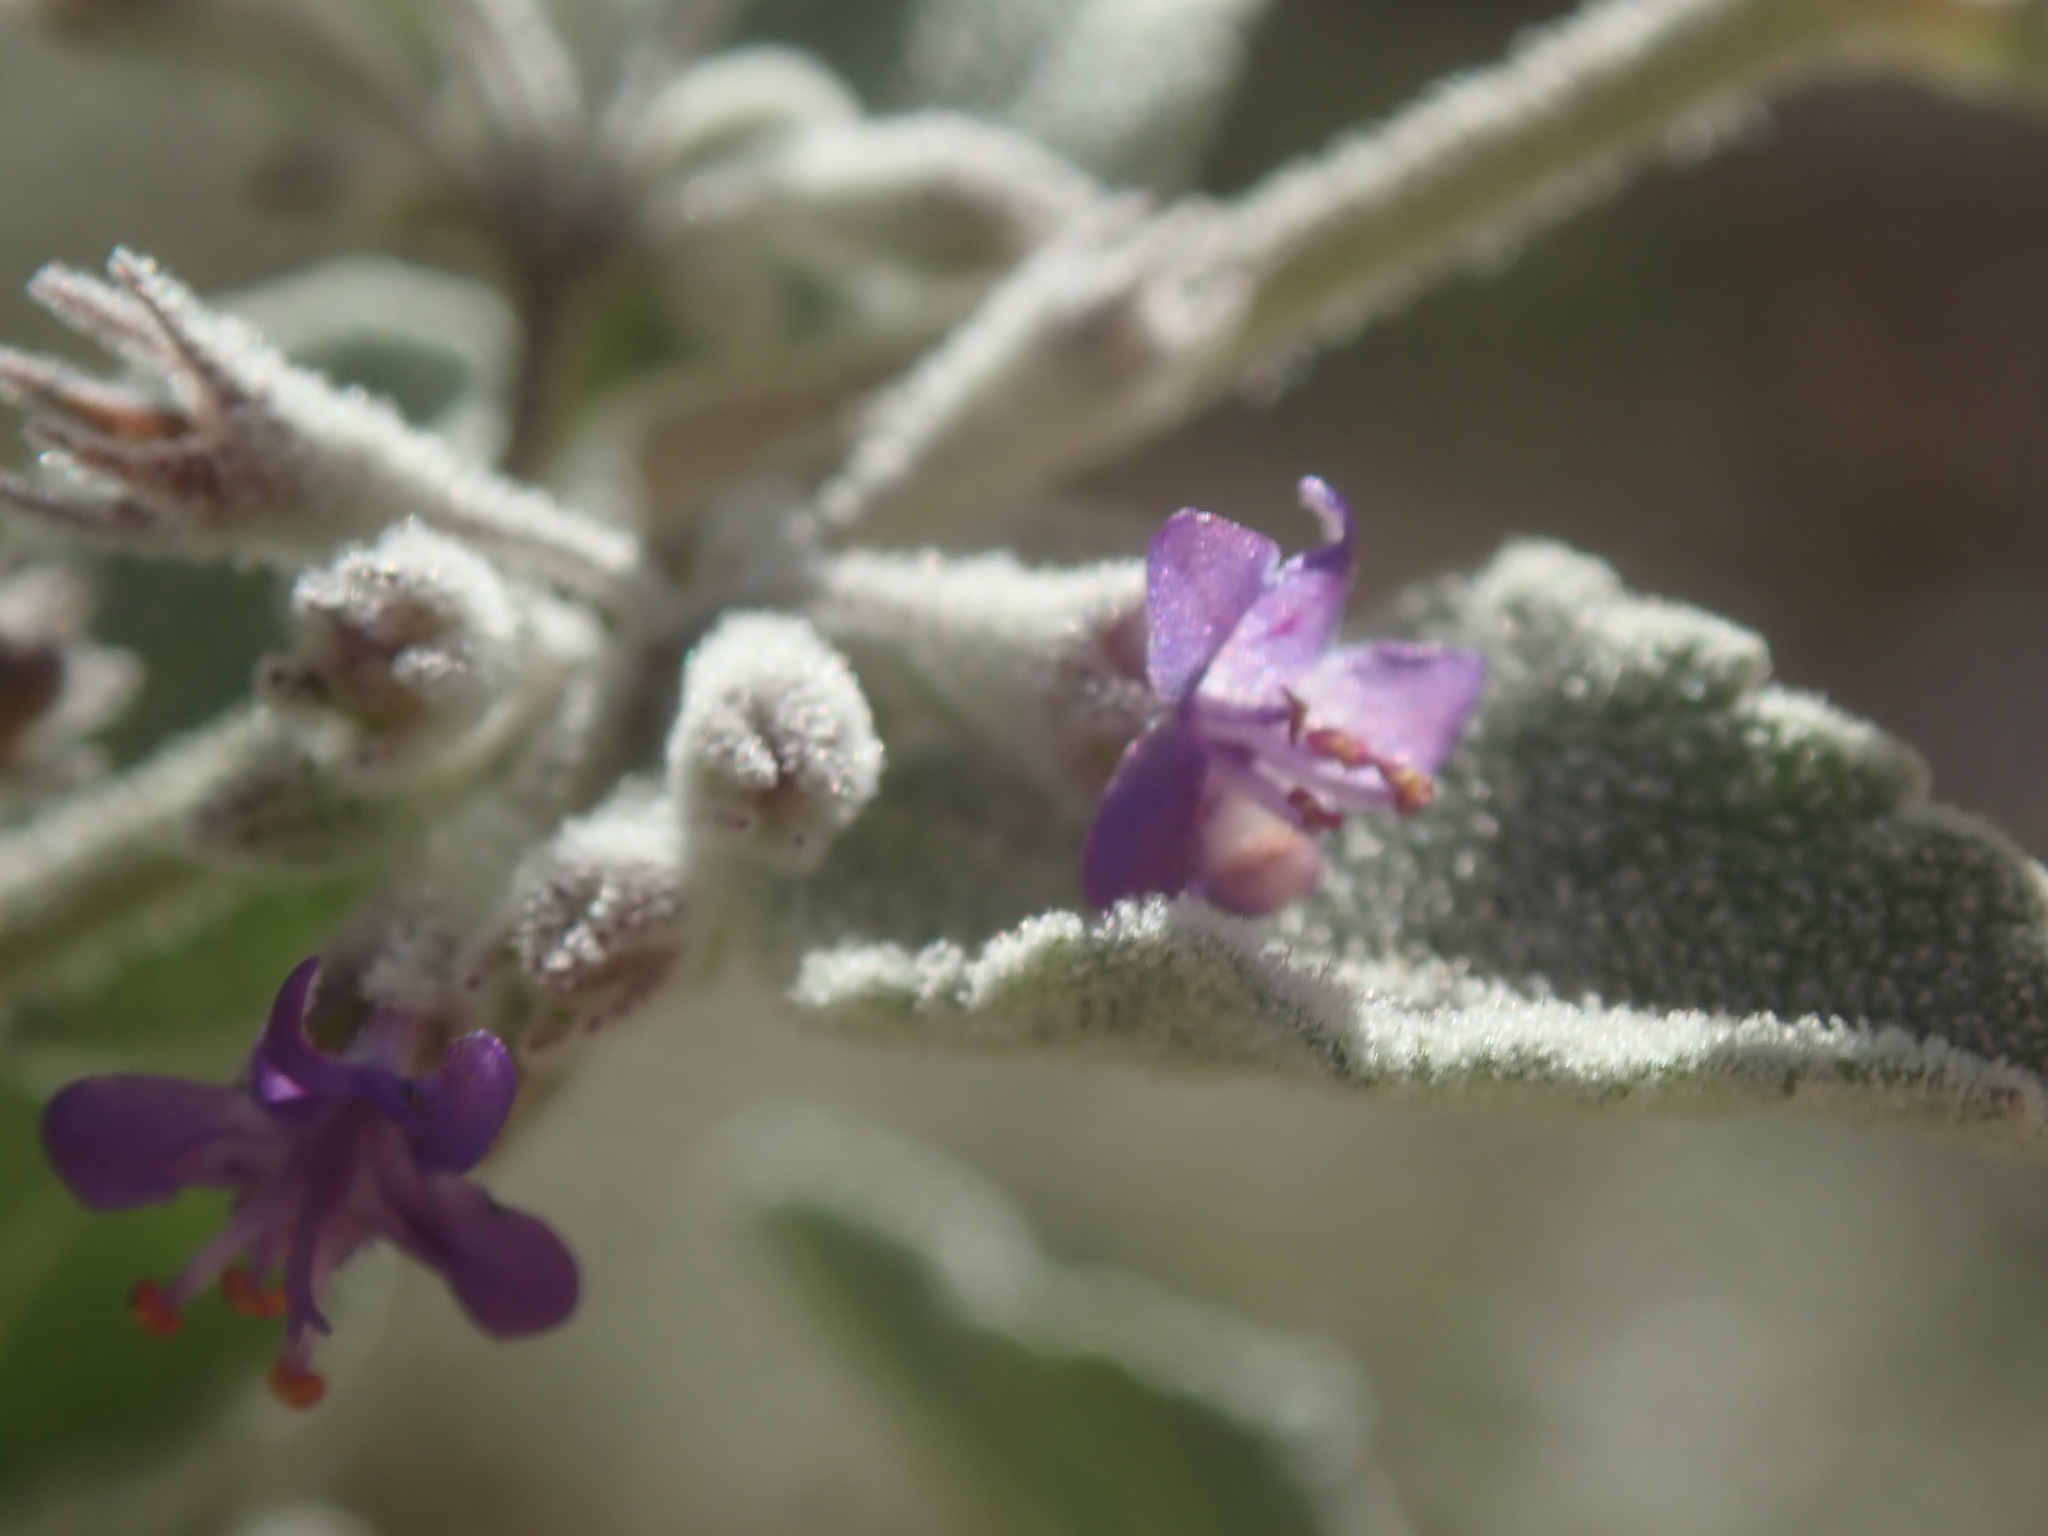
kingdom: Plantae
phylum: Tracheophyta
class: Magnoliopsida
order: Lamiales
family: Lamiaceae
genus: Condea
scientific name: Condea emoryi
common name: Chia
